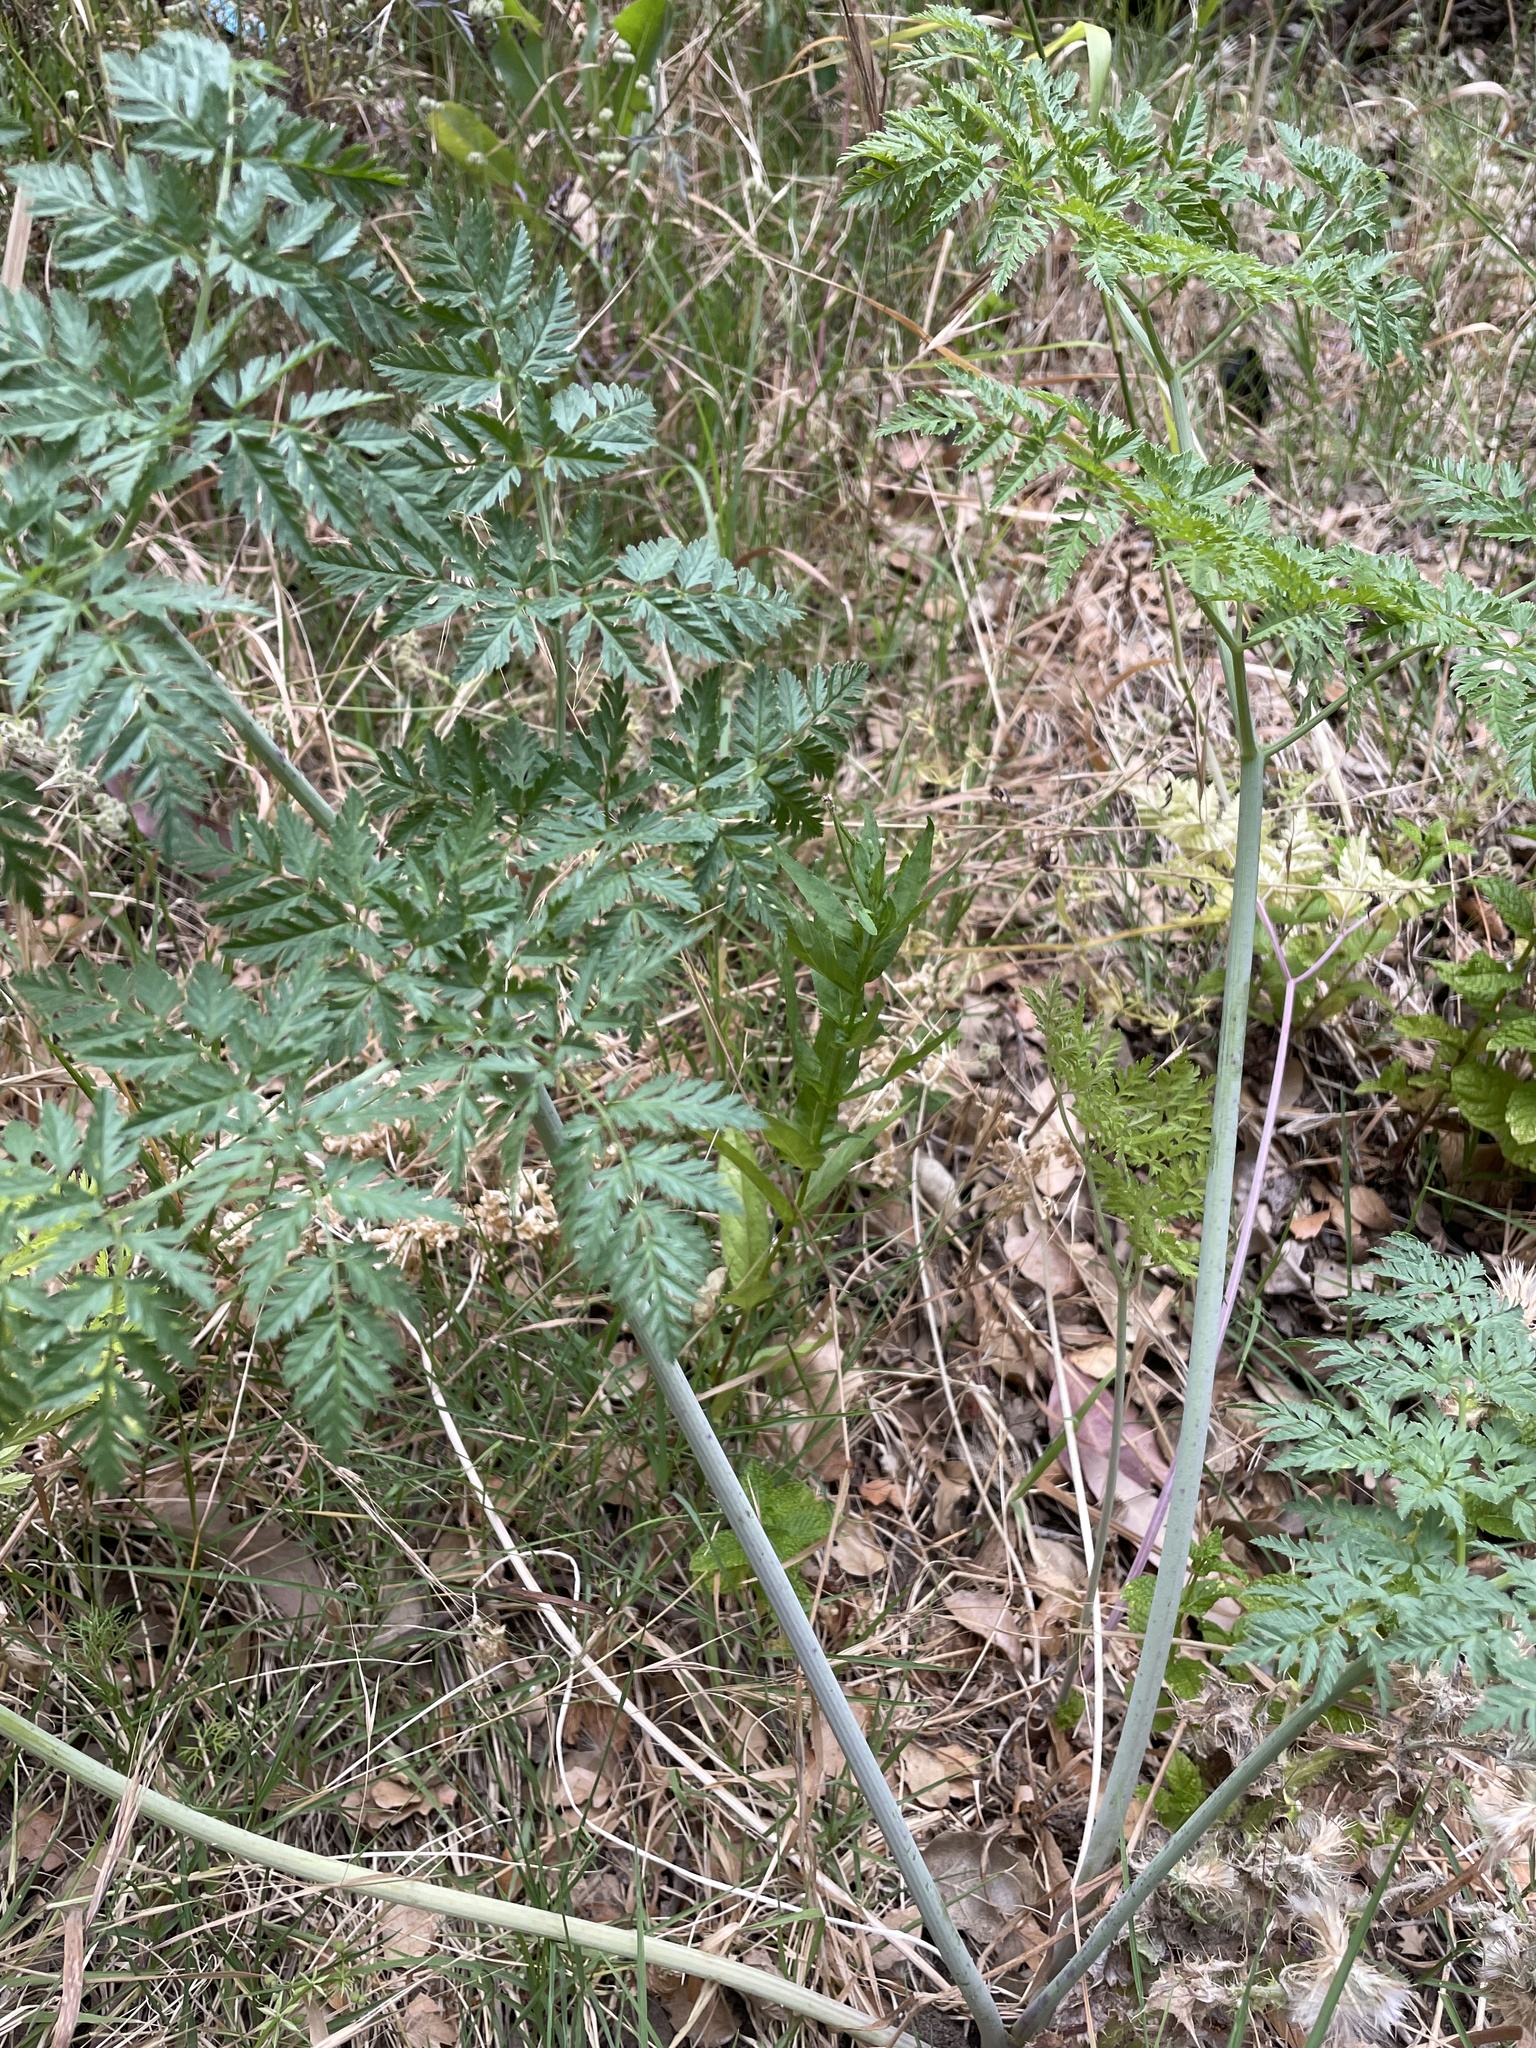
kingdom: Plantae
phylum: Tracheophyta
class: Magnoliopsida
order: Apiales
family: Apiaceae
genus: Conium
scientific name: Conium maculatum
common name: Hemlock
